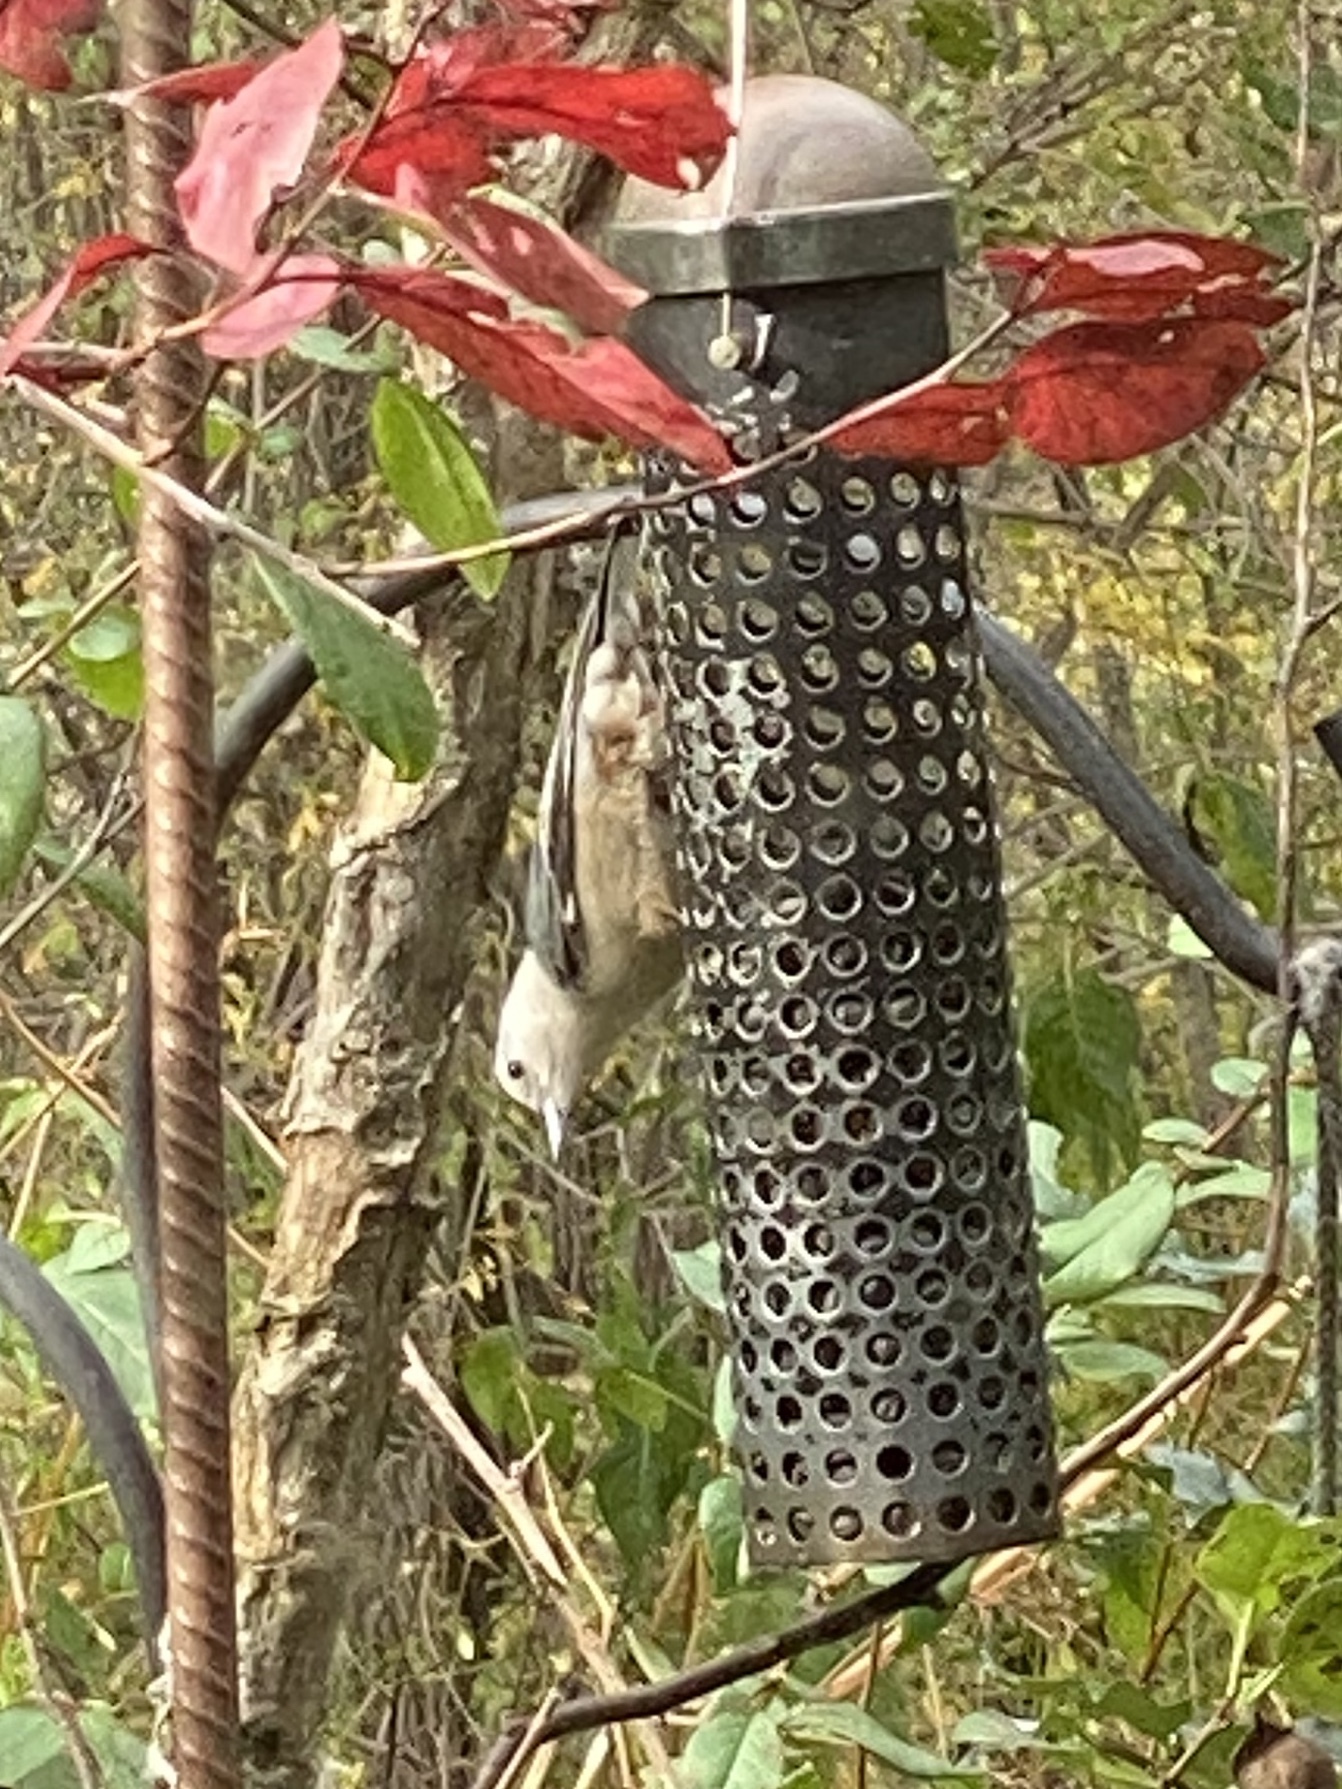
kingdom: Animalia
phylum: Chordata
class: Aves
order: Passeriformes
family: Sittidae
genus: Sitta
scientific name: Sitta carolinensis
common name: White-breasted nuthatch
